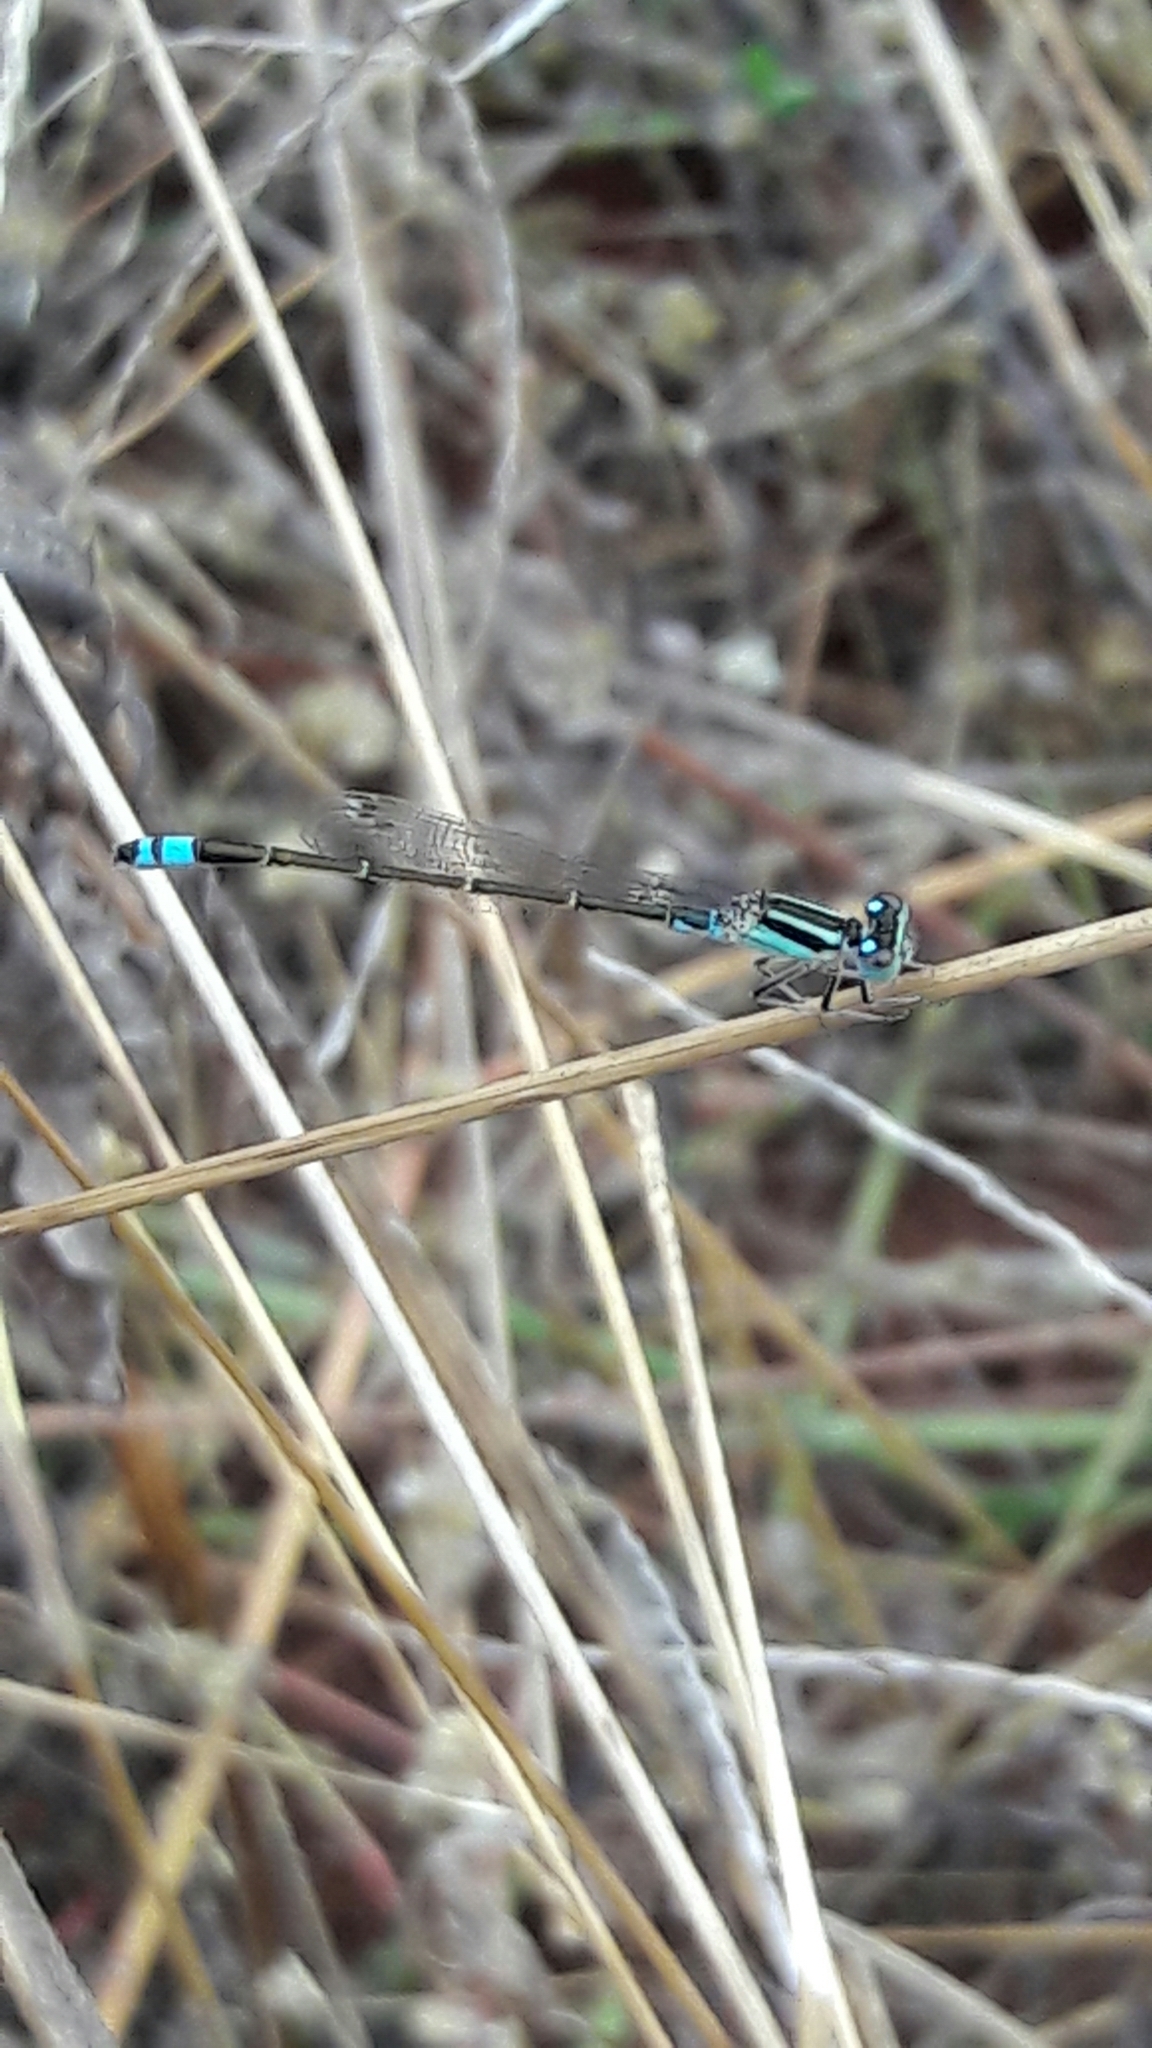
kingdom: Animalia
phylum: Arthropoda
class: Insecta
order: Odonata
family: Coenagrionidae
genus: Ischnura
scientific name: Ischnura fluviatilis
